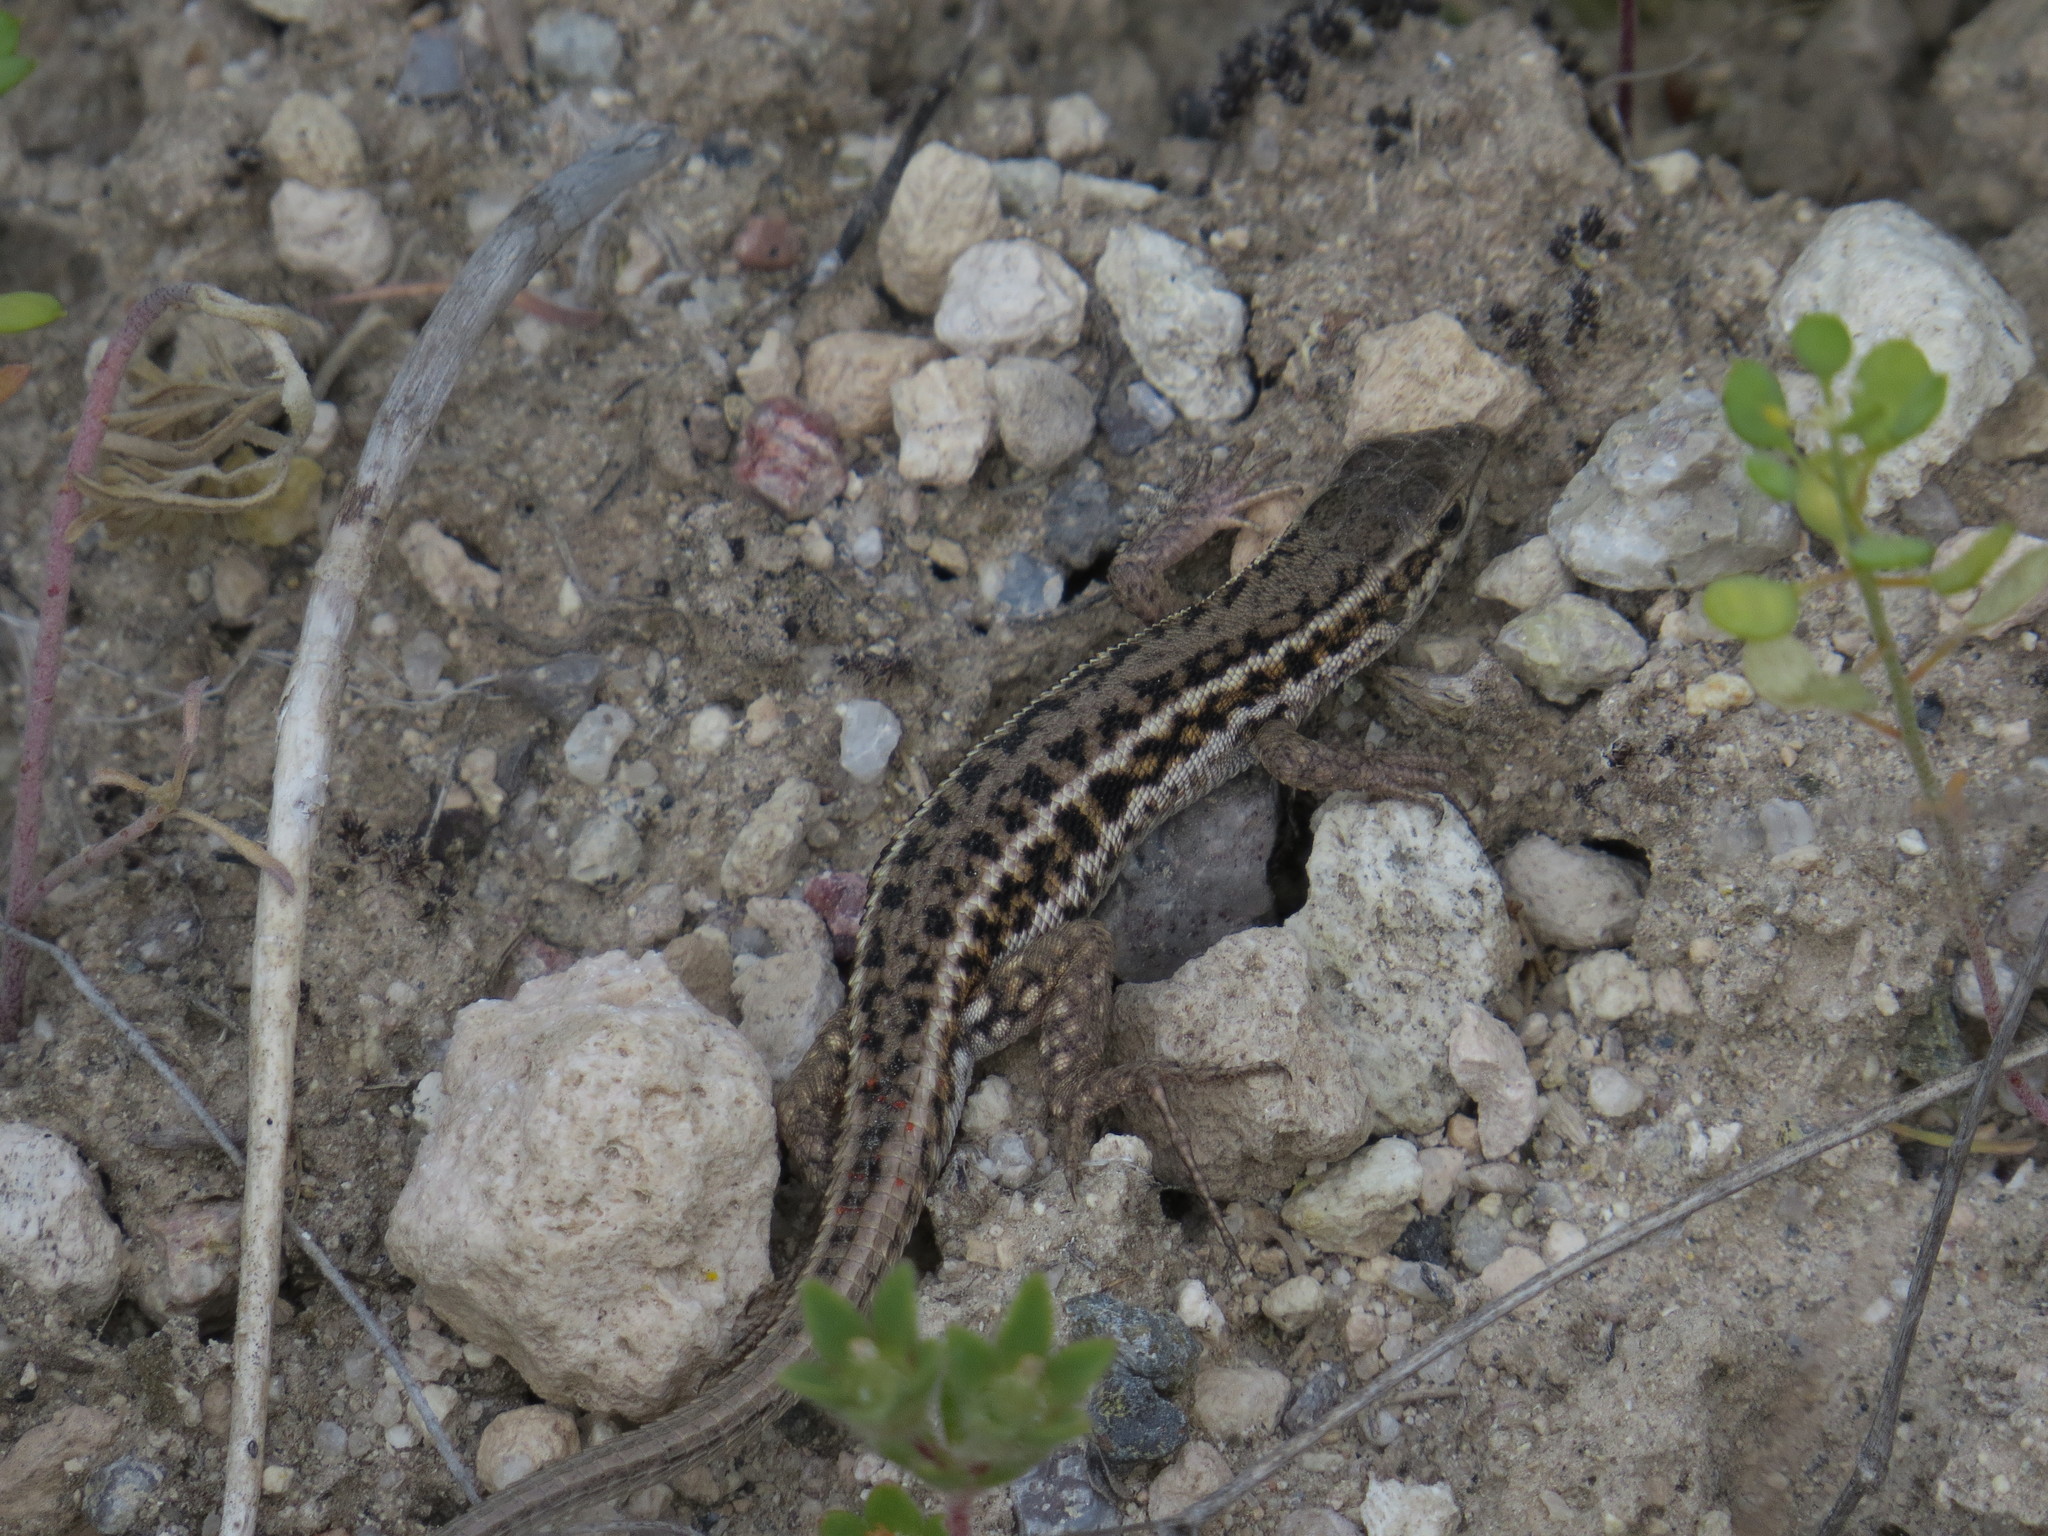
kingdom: Animalia
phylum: Chordata
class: Squamata
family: Lacertidae
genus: Ophisops
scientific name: Ophisops elegans
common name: Snake-eyed lizard
